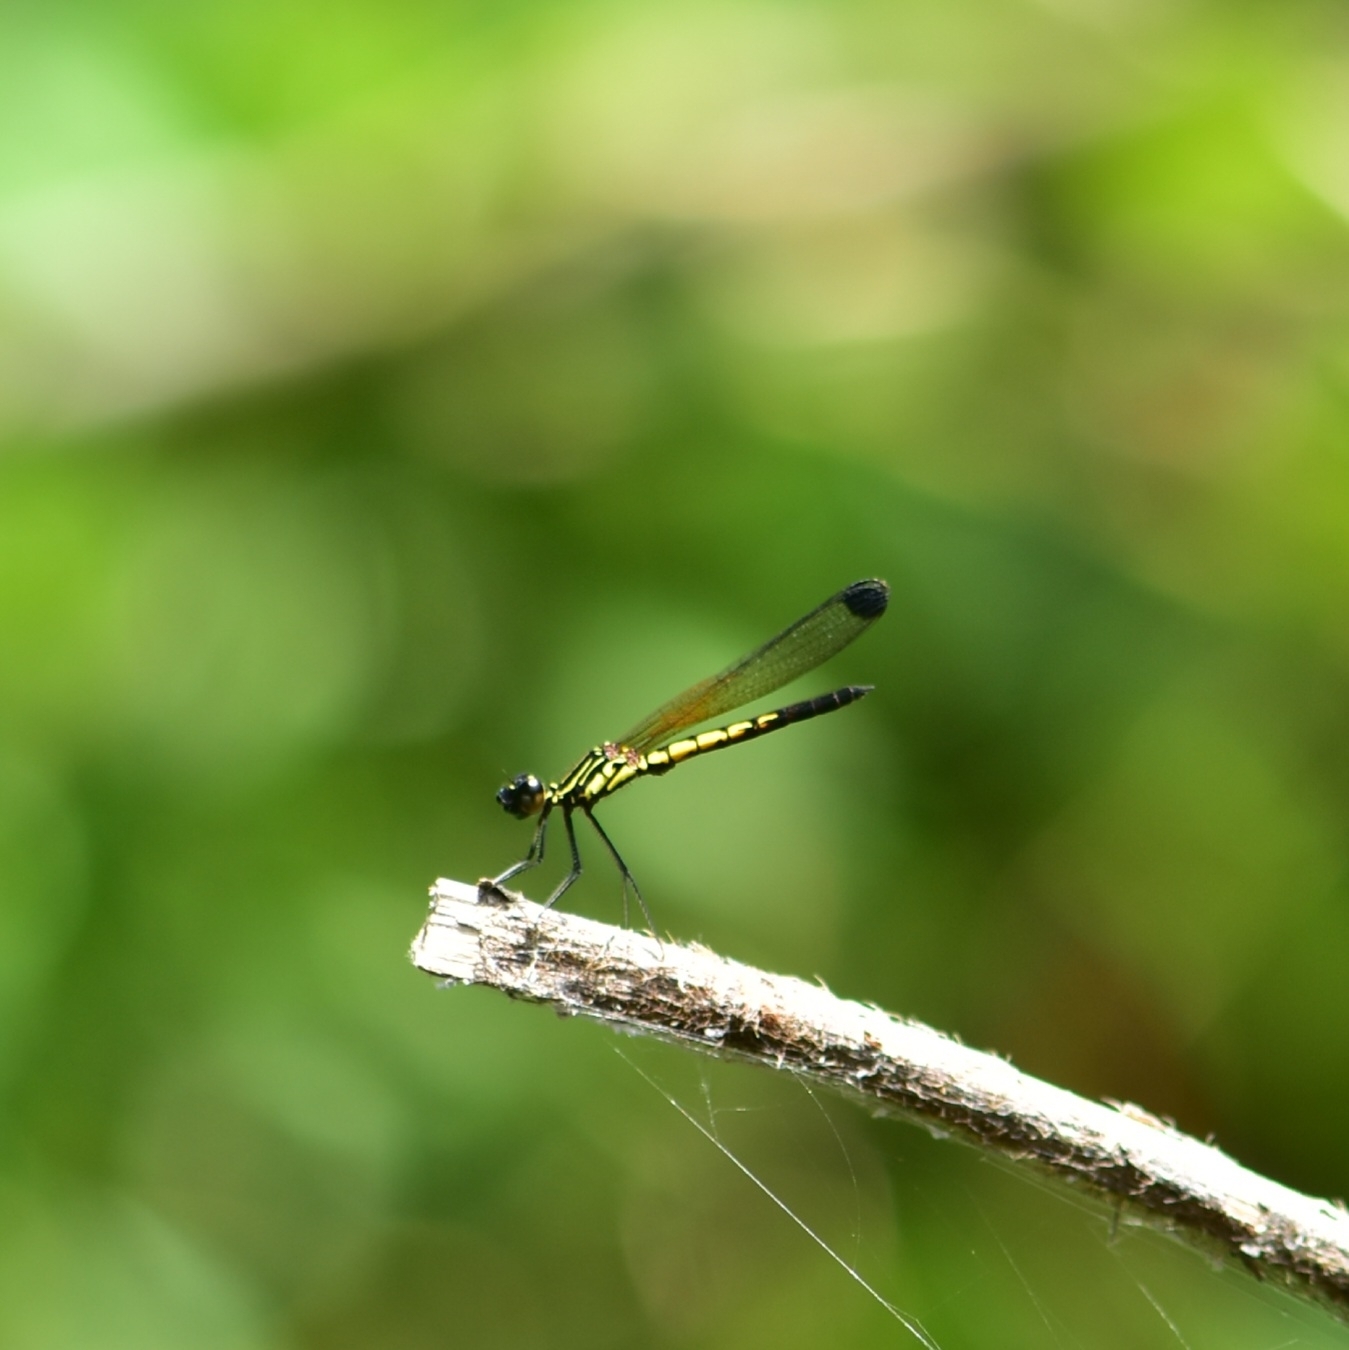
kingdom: Animalia
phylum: Arthropoda
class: Insecta
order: Odonata
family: Chlorocyphidae
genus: Libellago
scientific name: Libellago indica
